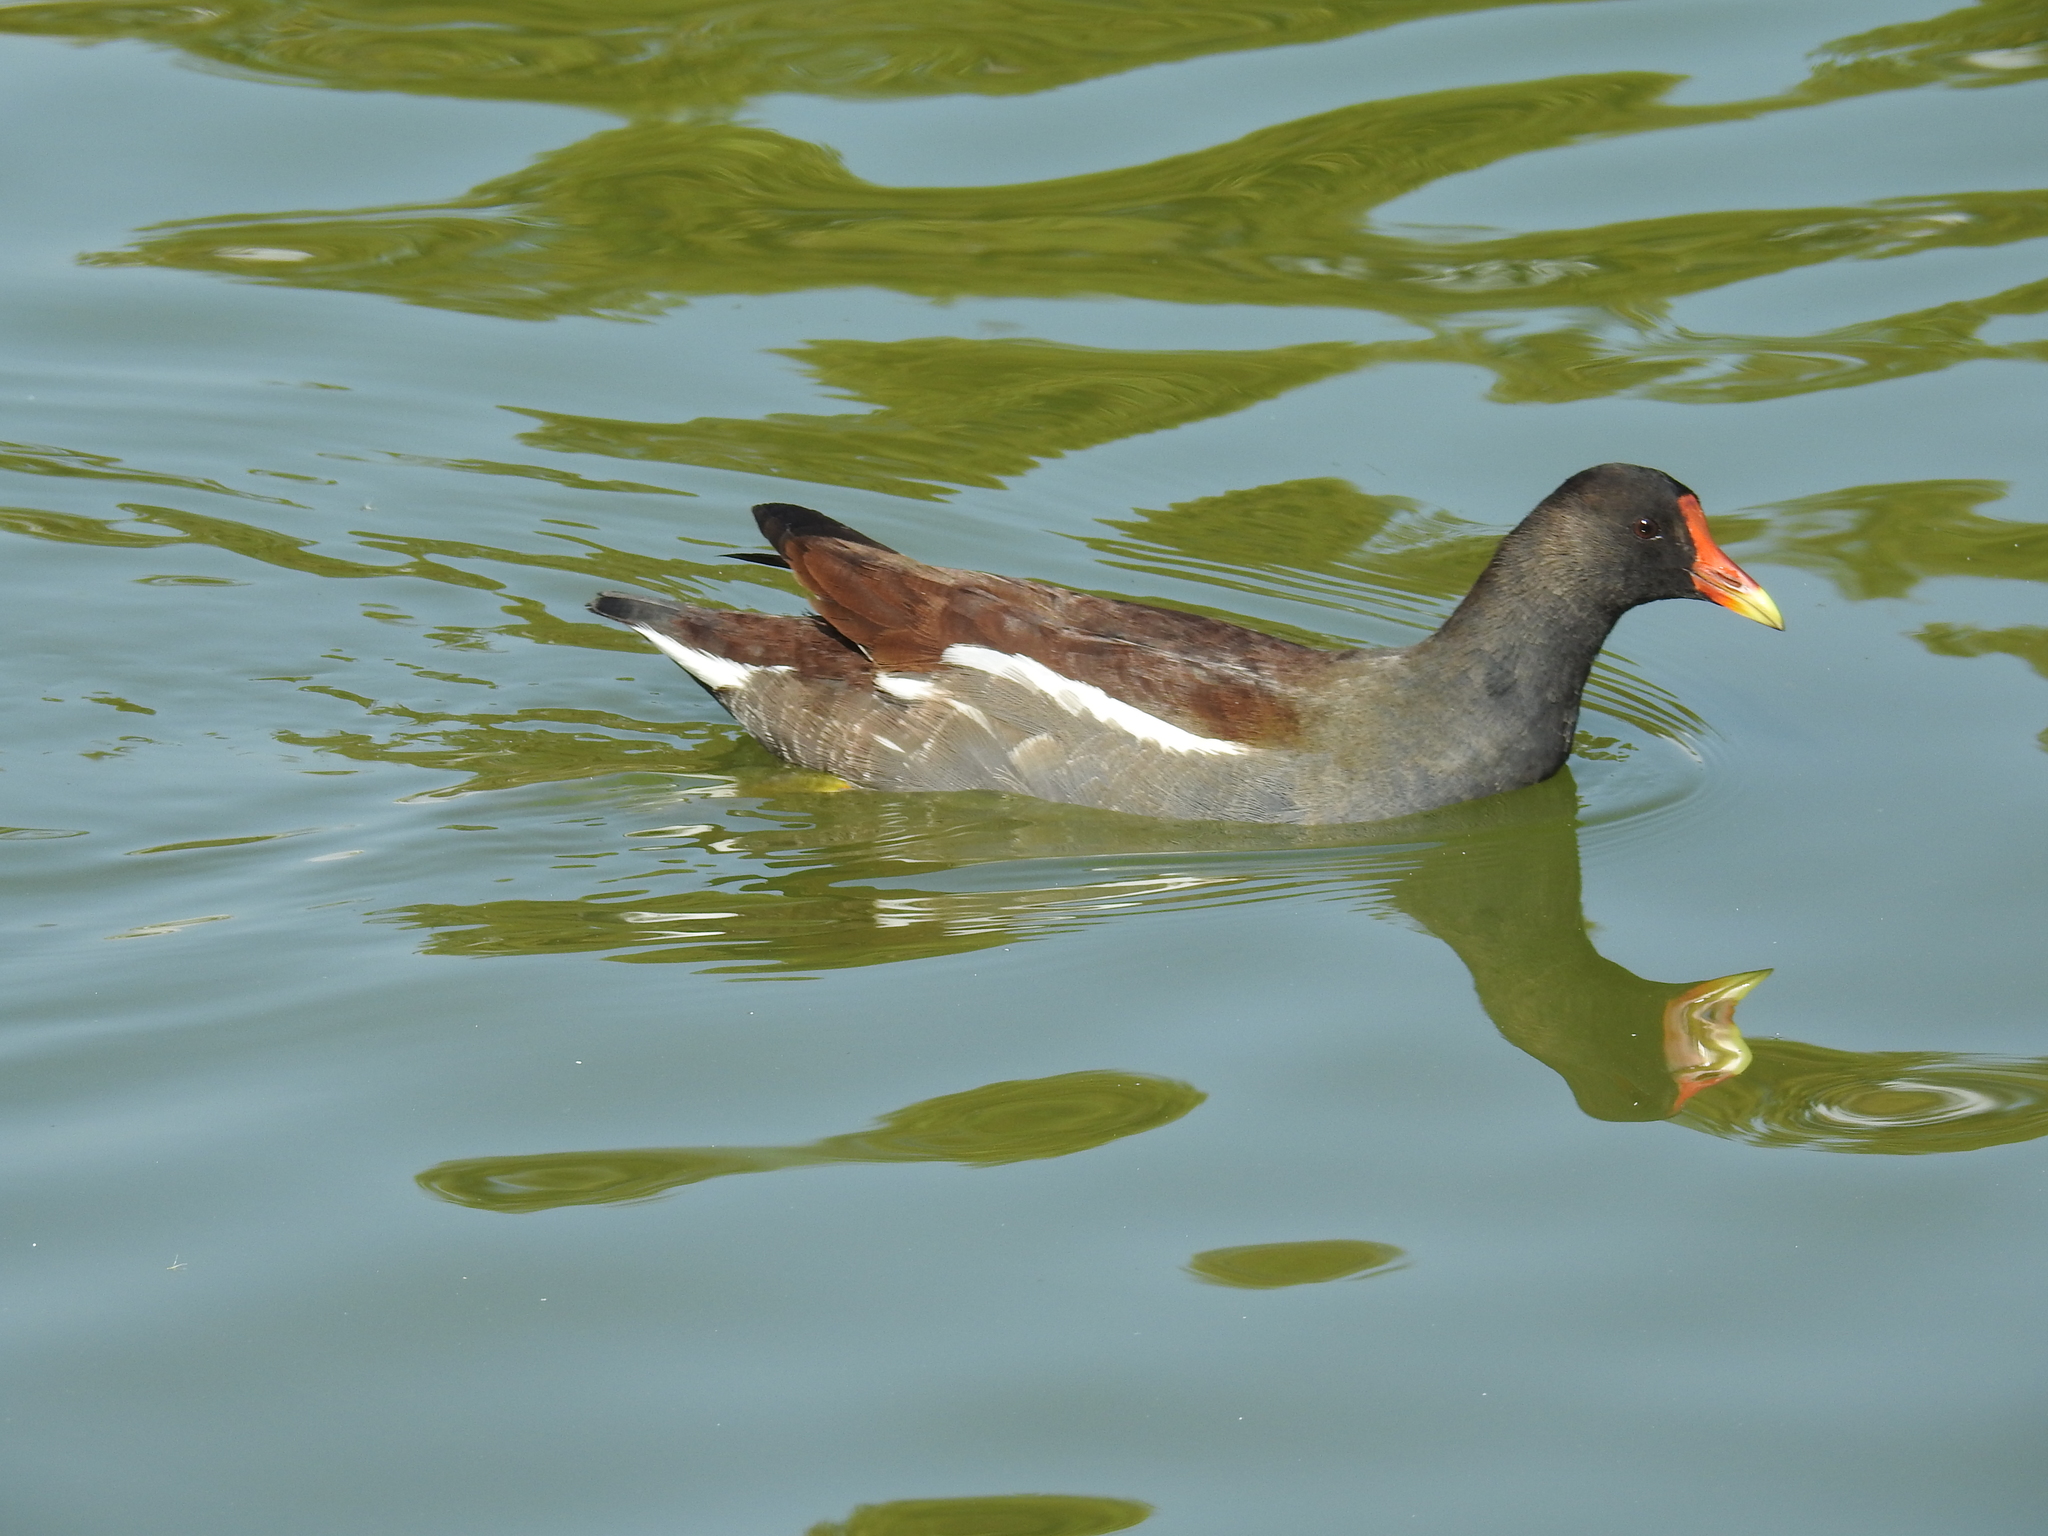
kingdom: Animalia
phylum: Chordata
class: Aves
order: Gruiformes
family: Rallidae
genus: Gallinula
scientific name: Gallinula chloropus
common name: Common moorhen
